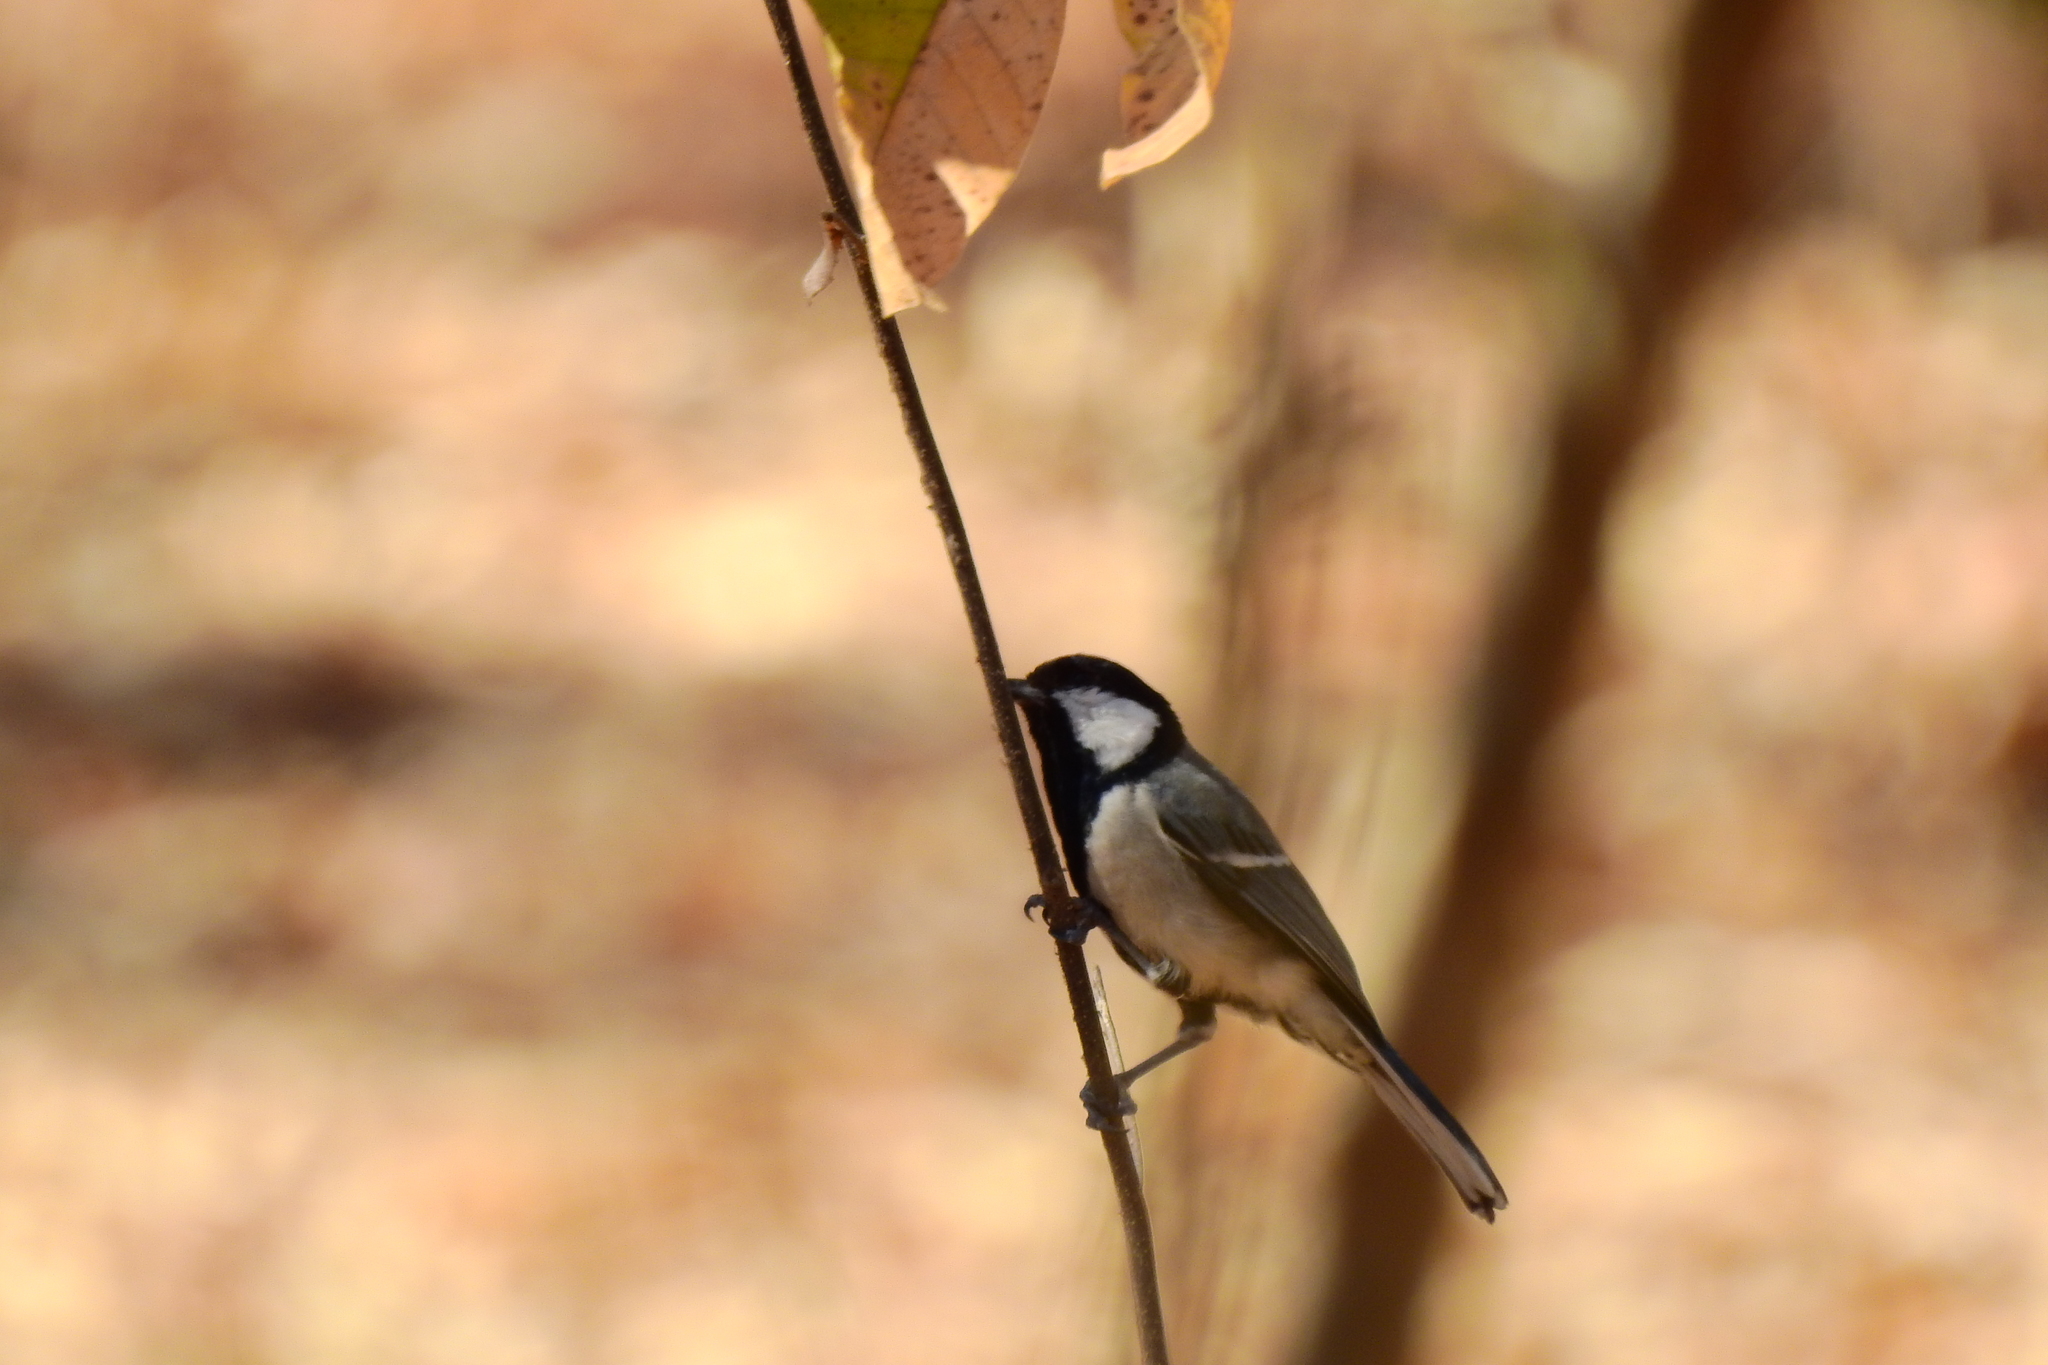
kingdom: Animalia
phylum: Chordata
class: Aves
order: Passeriformes
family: Paridae
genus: Parus
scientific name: Parus cinereus
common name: Cinereous tit
